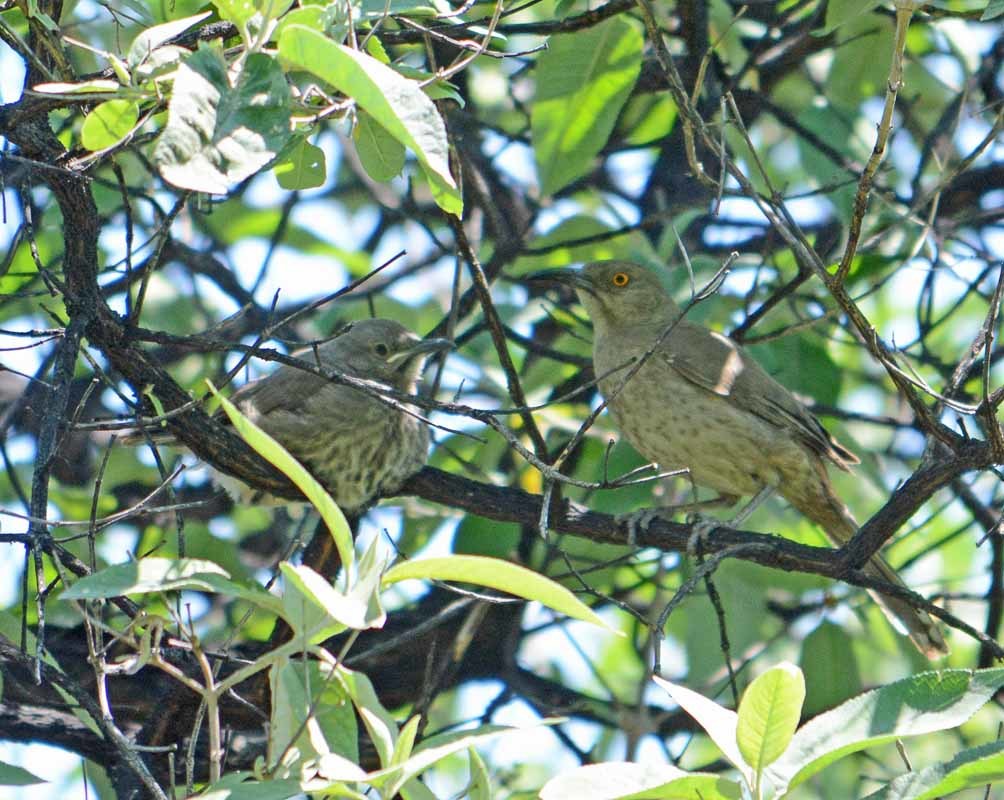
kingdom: Animalia
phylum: Chordata
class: Aves
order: Passeriformes
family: Mimidae
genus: Toxostoma
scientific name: Toxostoma curvirostre
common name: Curve-billed thrasher
